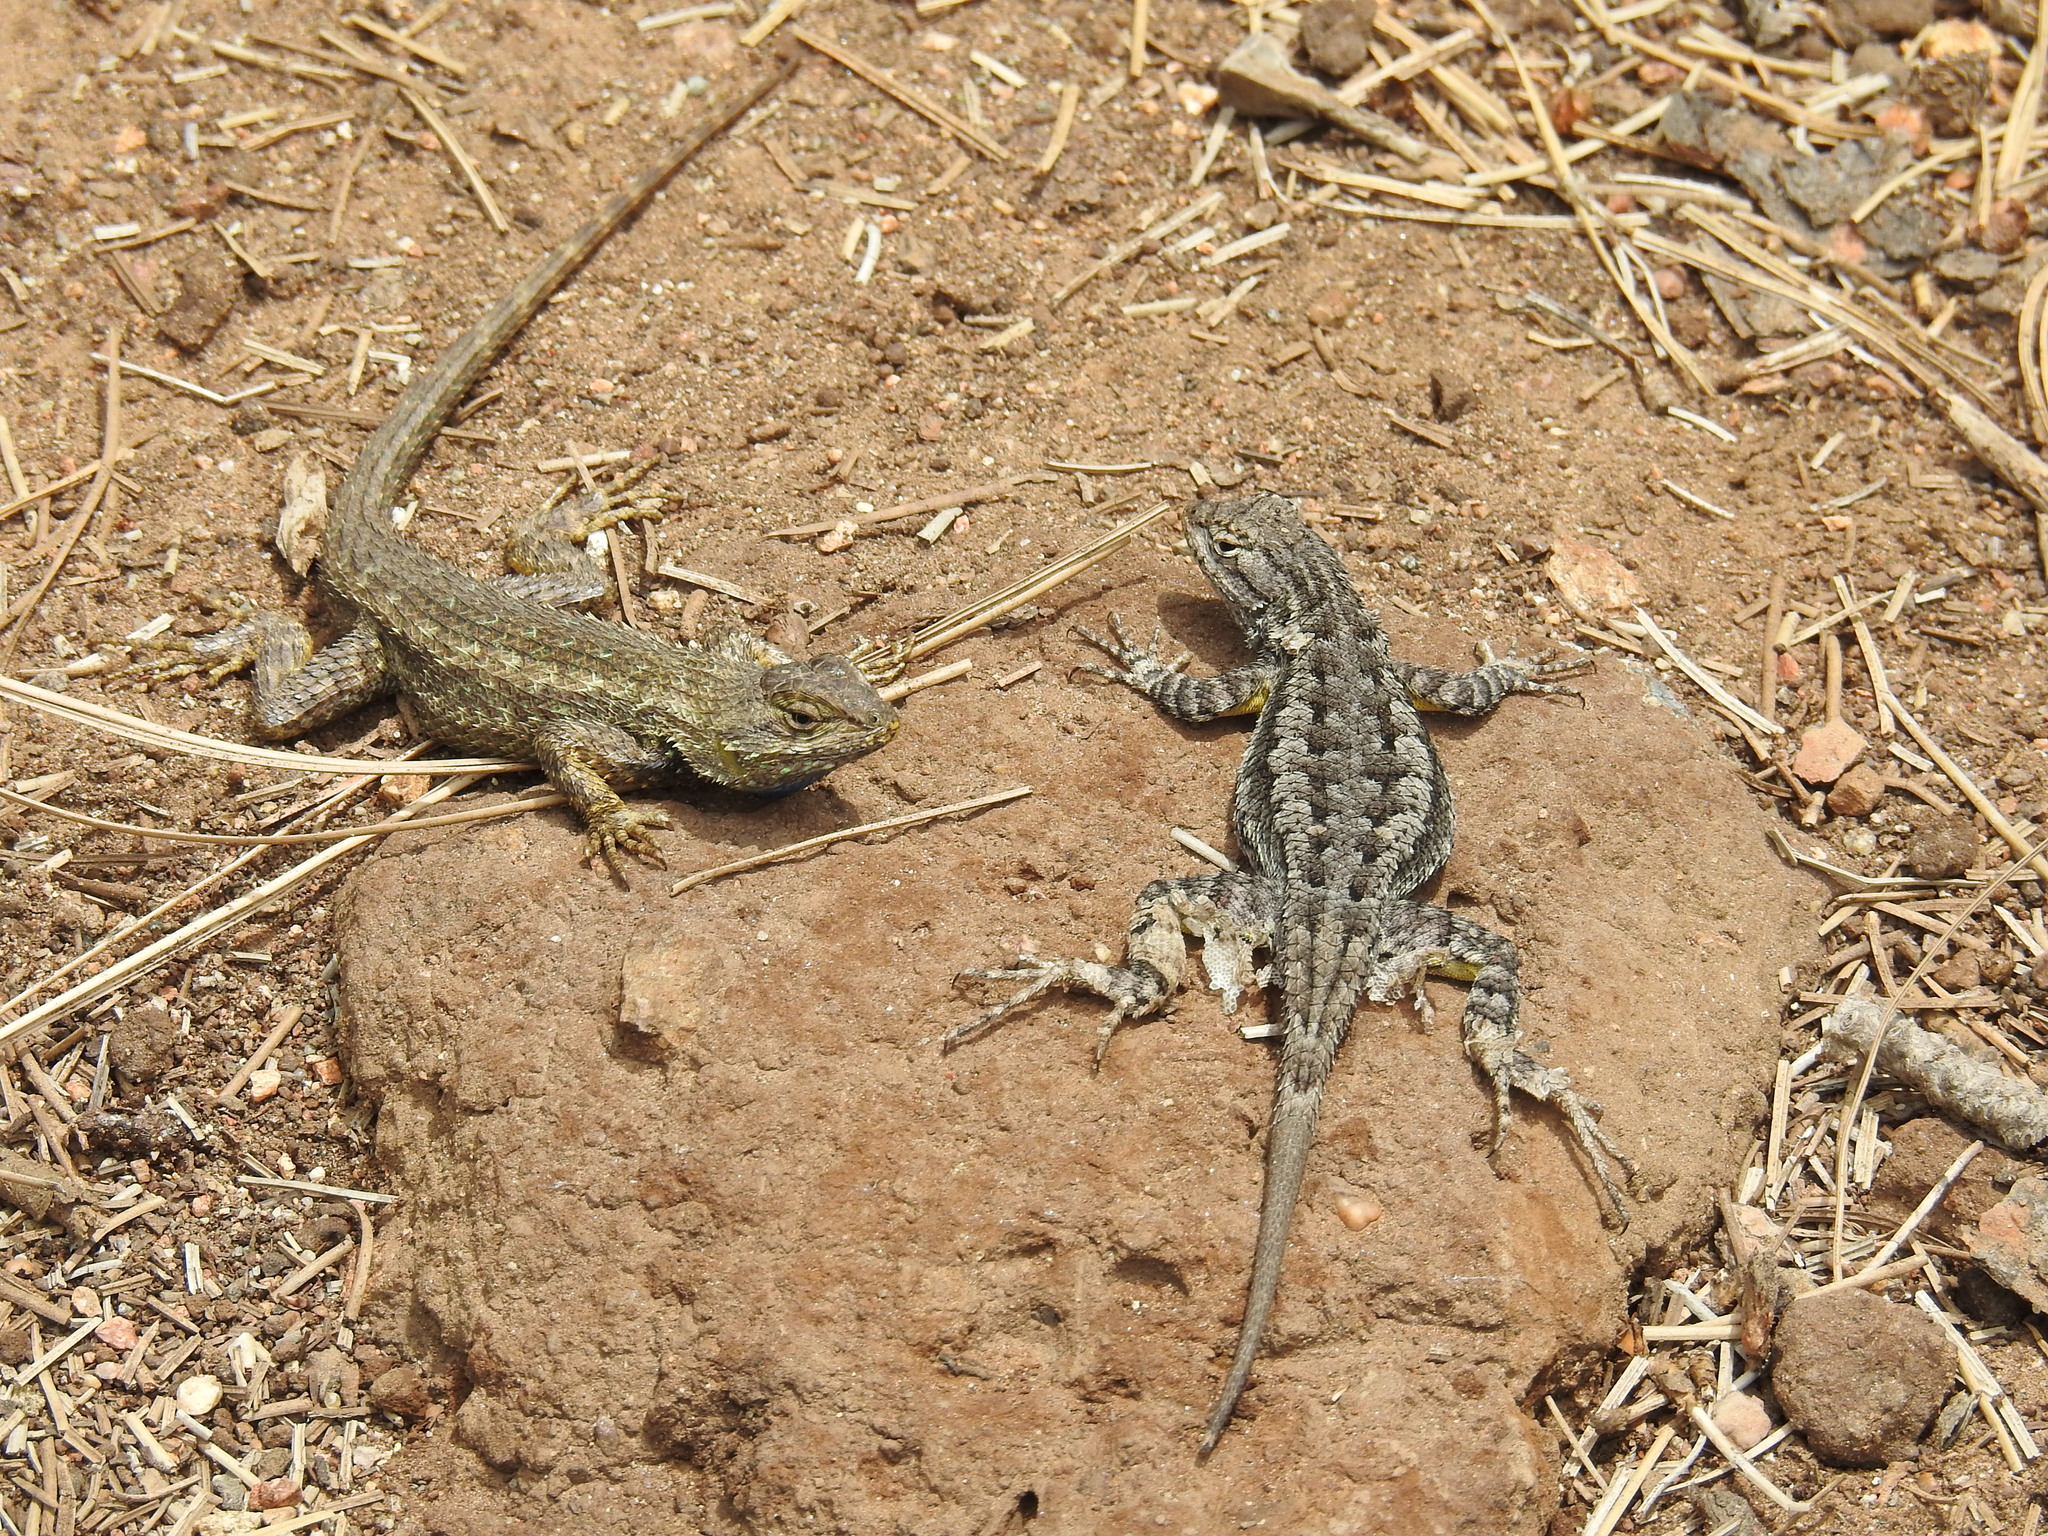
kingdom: Animalia
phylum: Chordata
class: Squamata
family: Phrynosomatidae
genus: Sceloporus
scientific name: Sceloporus occidentalis
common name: Western fence lizard
